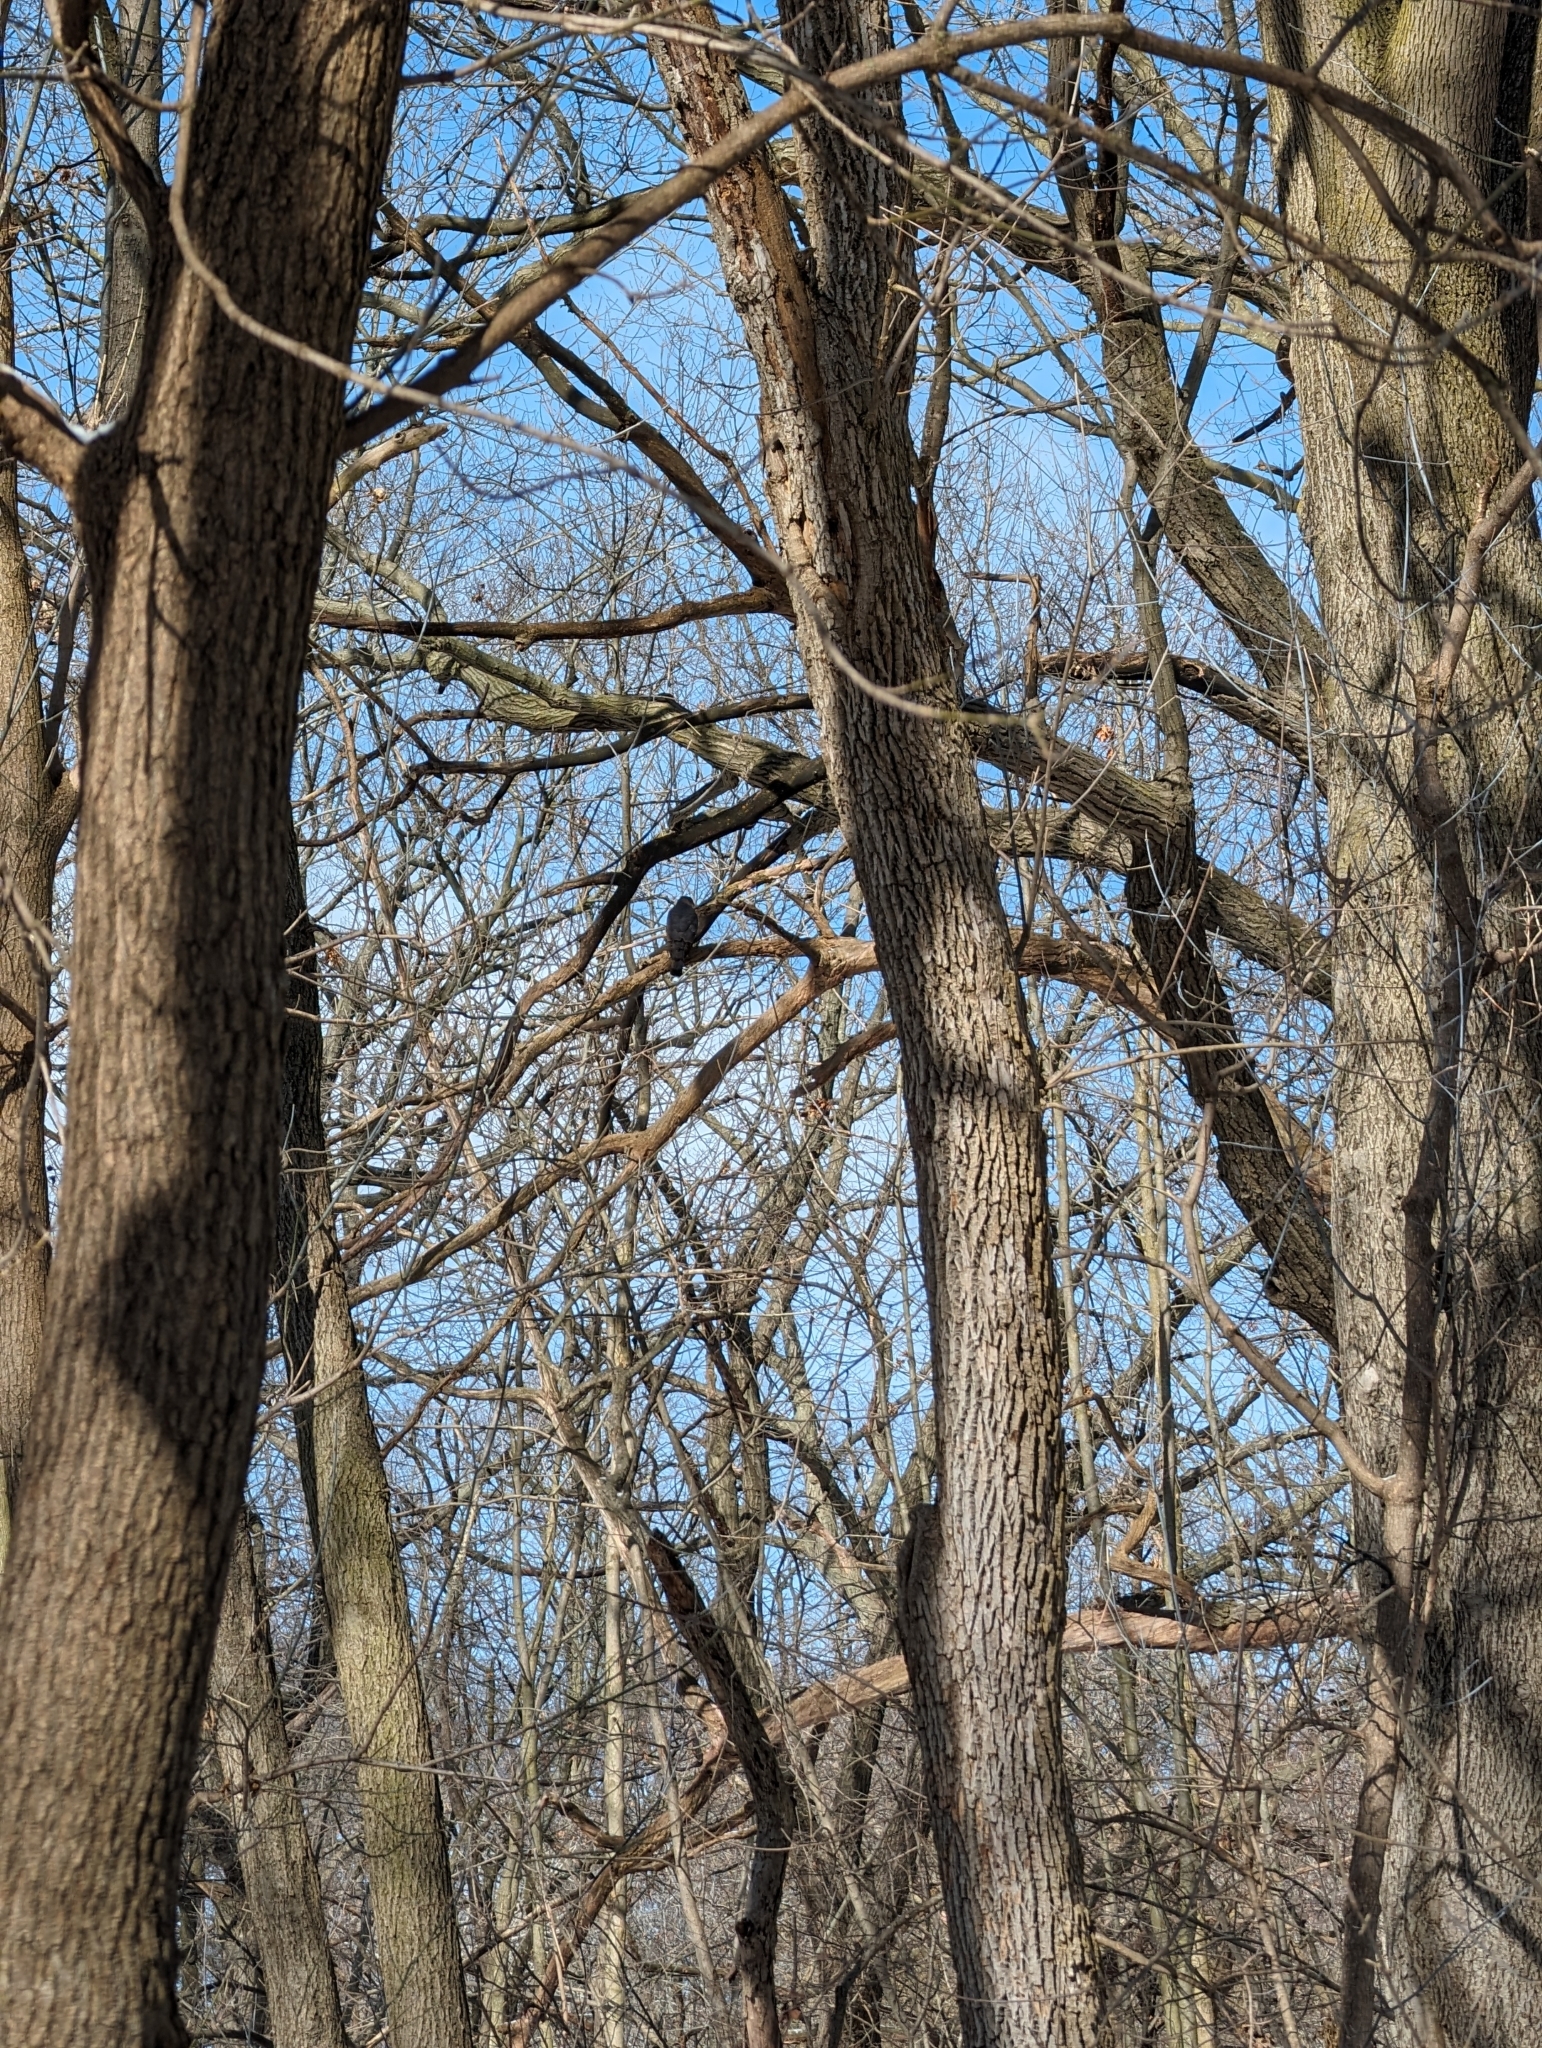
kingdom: Animalia
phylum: Chordata
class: Aves
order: Accipitriformes
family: Accipitridae
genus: Accipiter
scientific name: Accipiter cooperii
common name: Cooper's hawk
